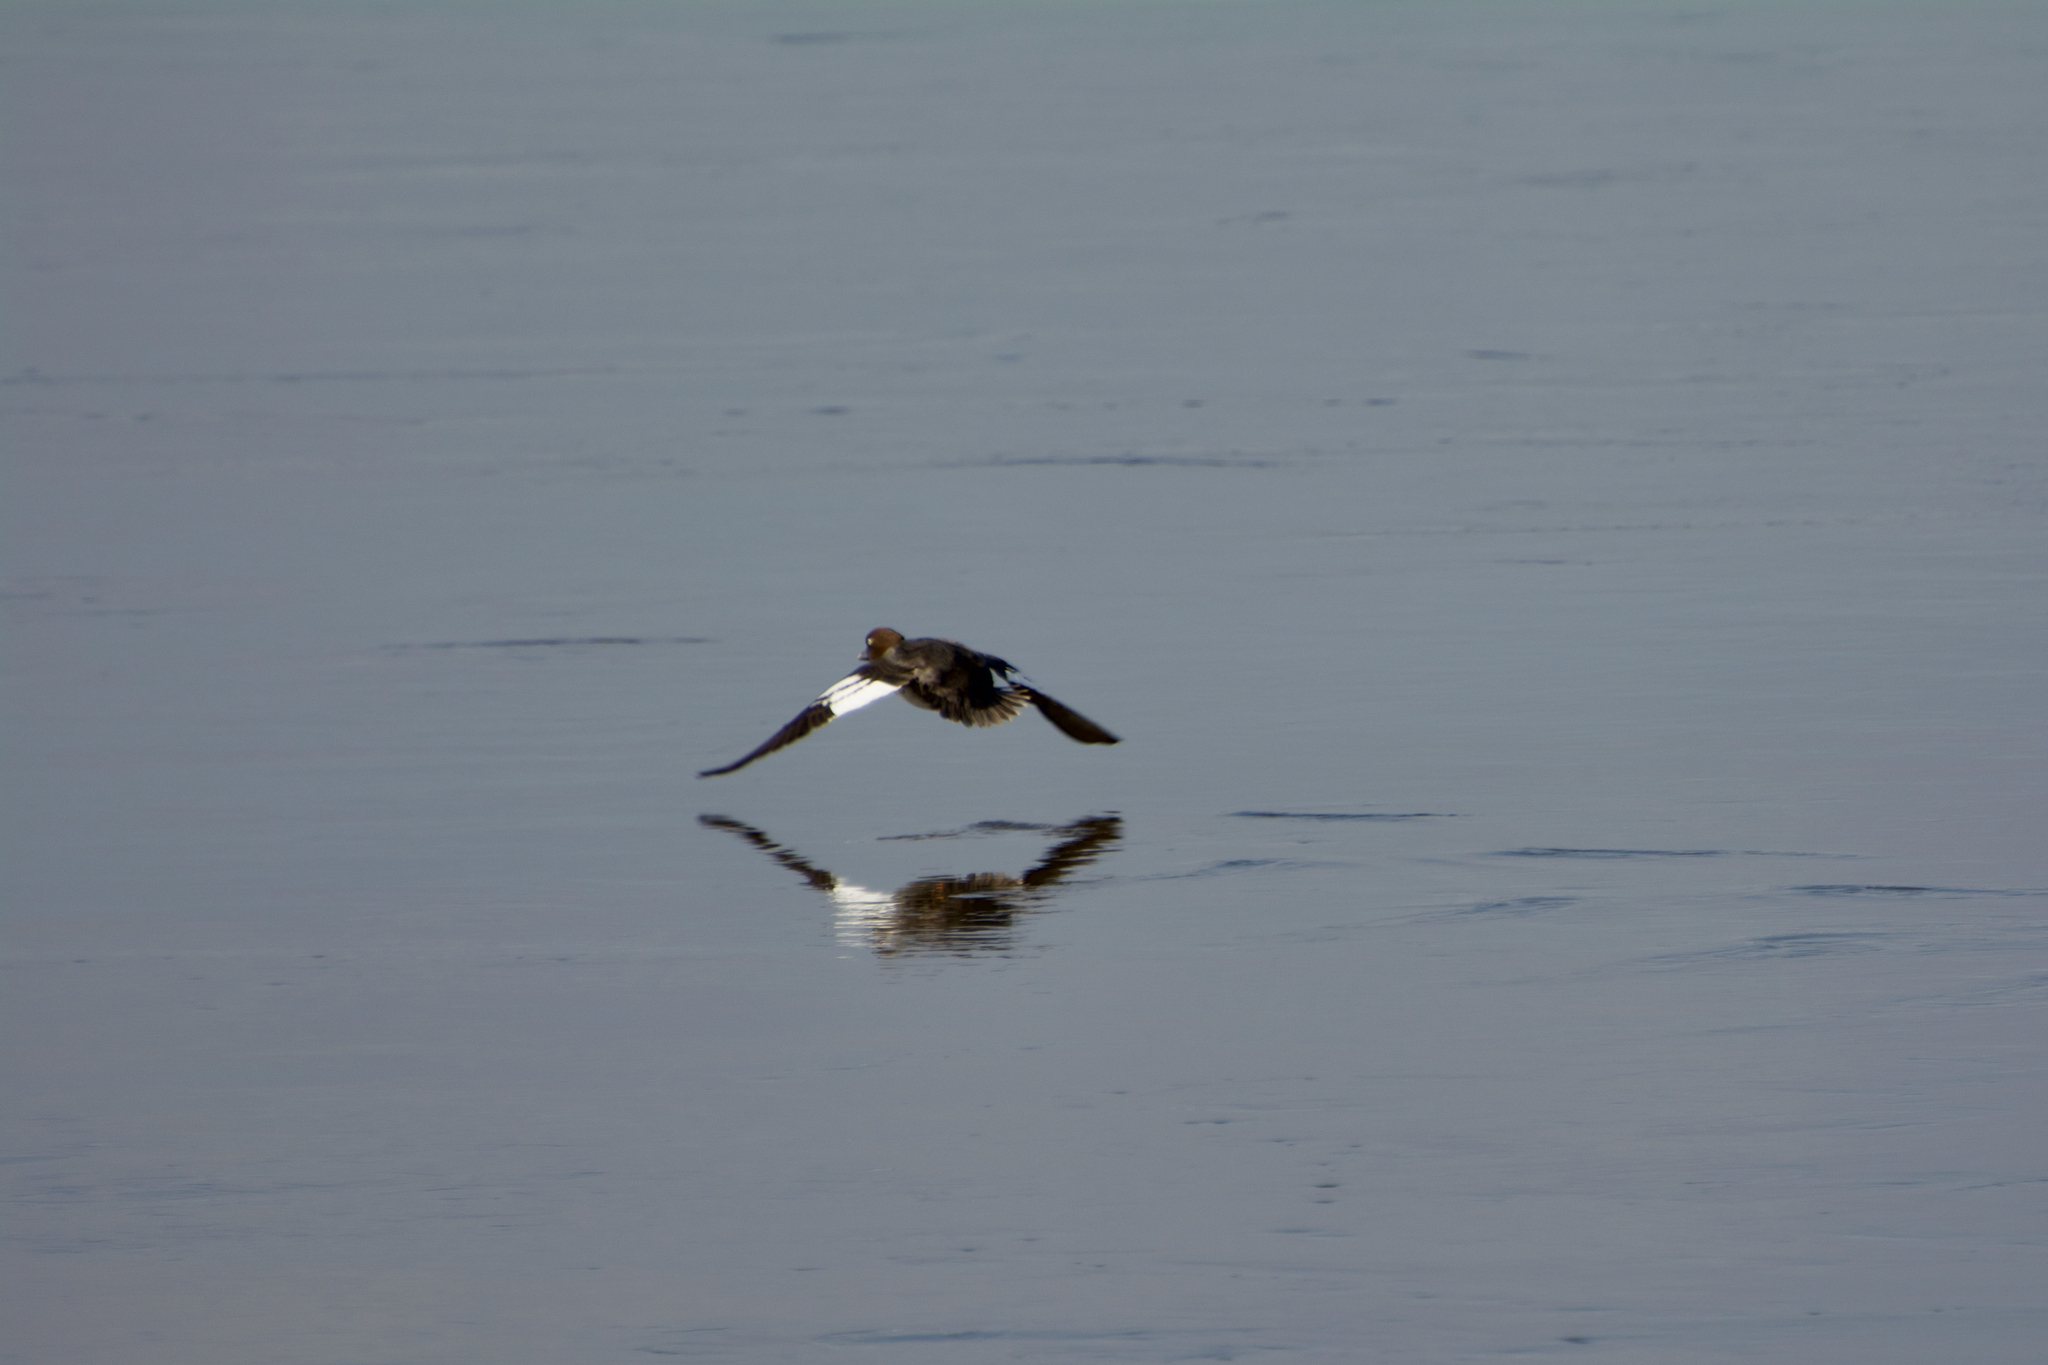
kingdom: Animalia
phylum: Chordata
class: Aves
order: Anseriformes
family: Anatidae
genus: Bucephala
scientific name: Bucephala clangula
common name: Common goldeneye
